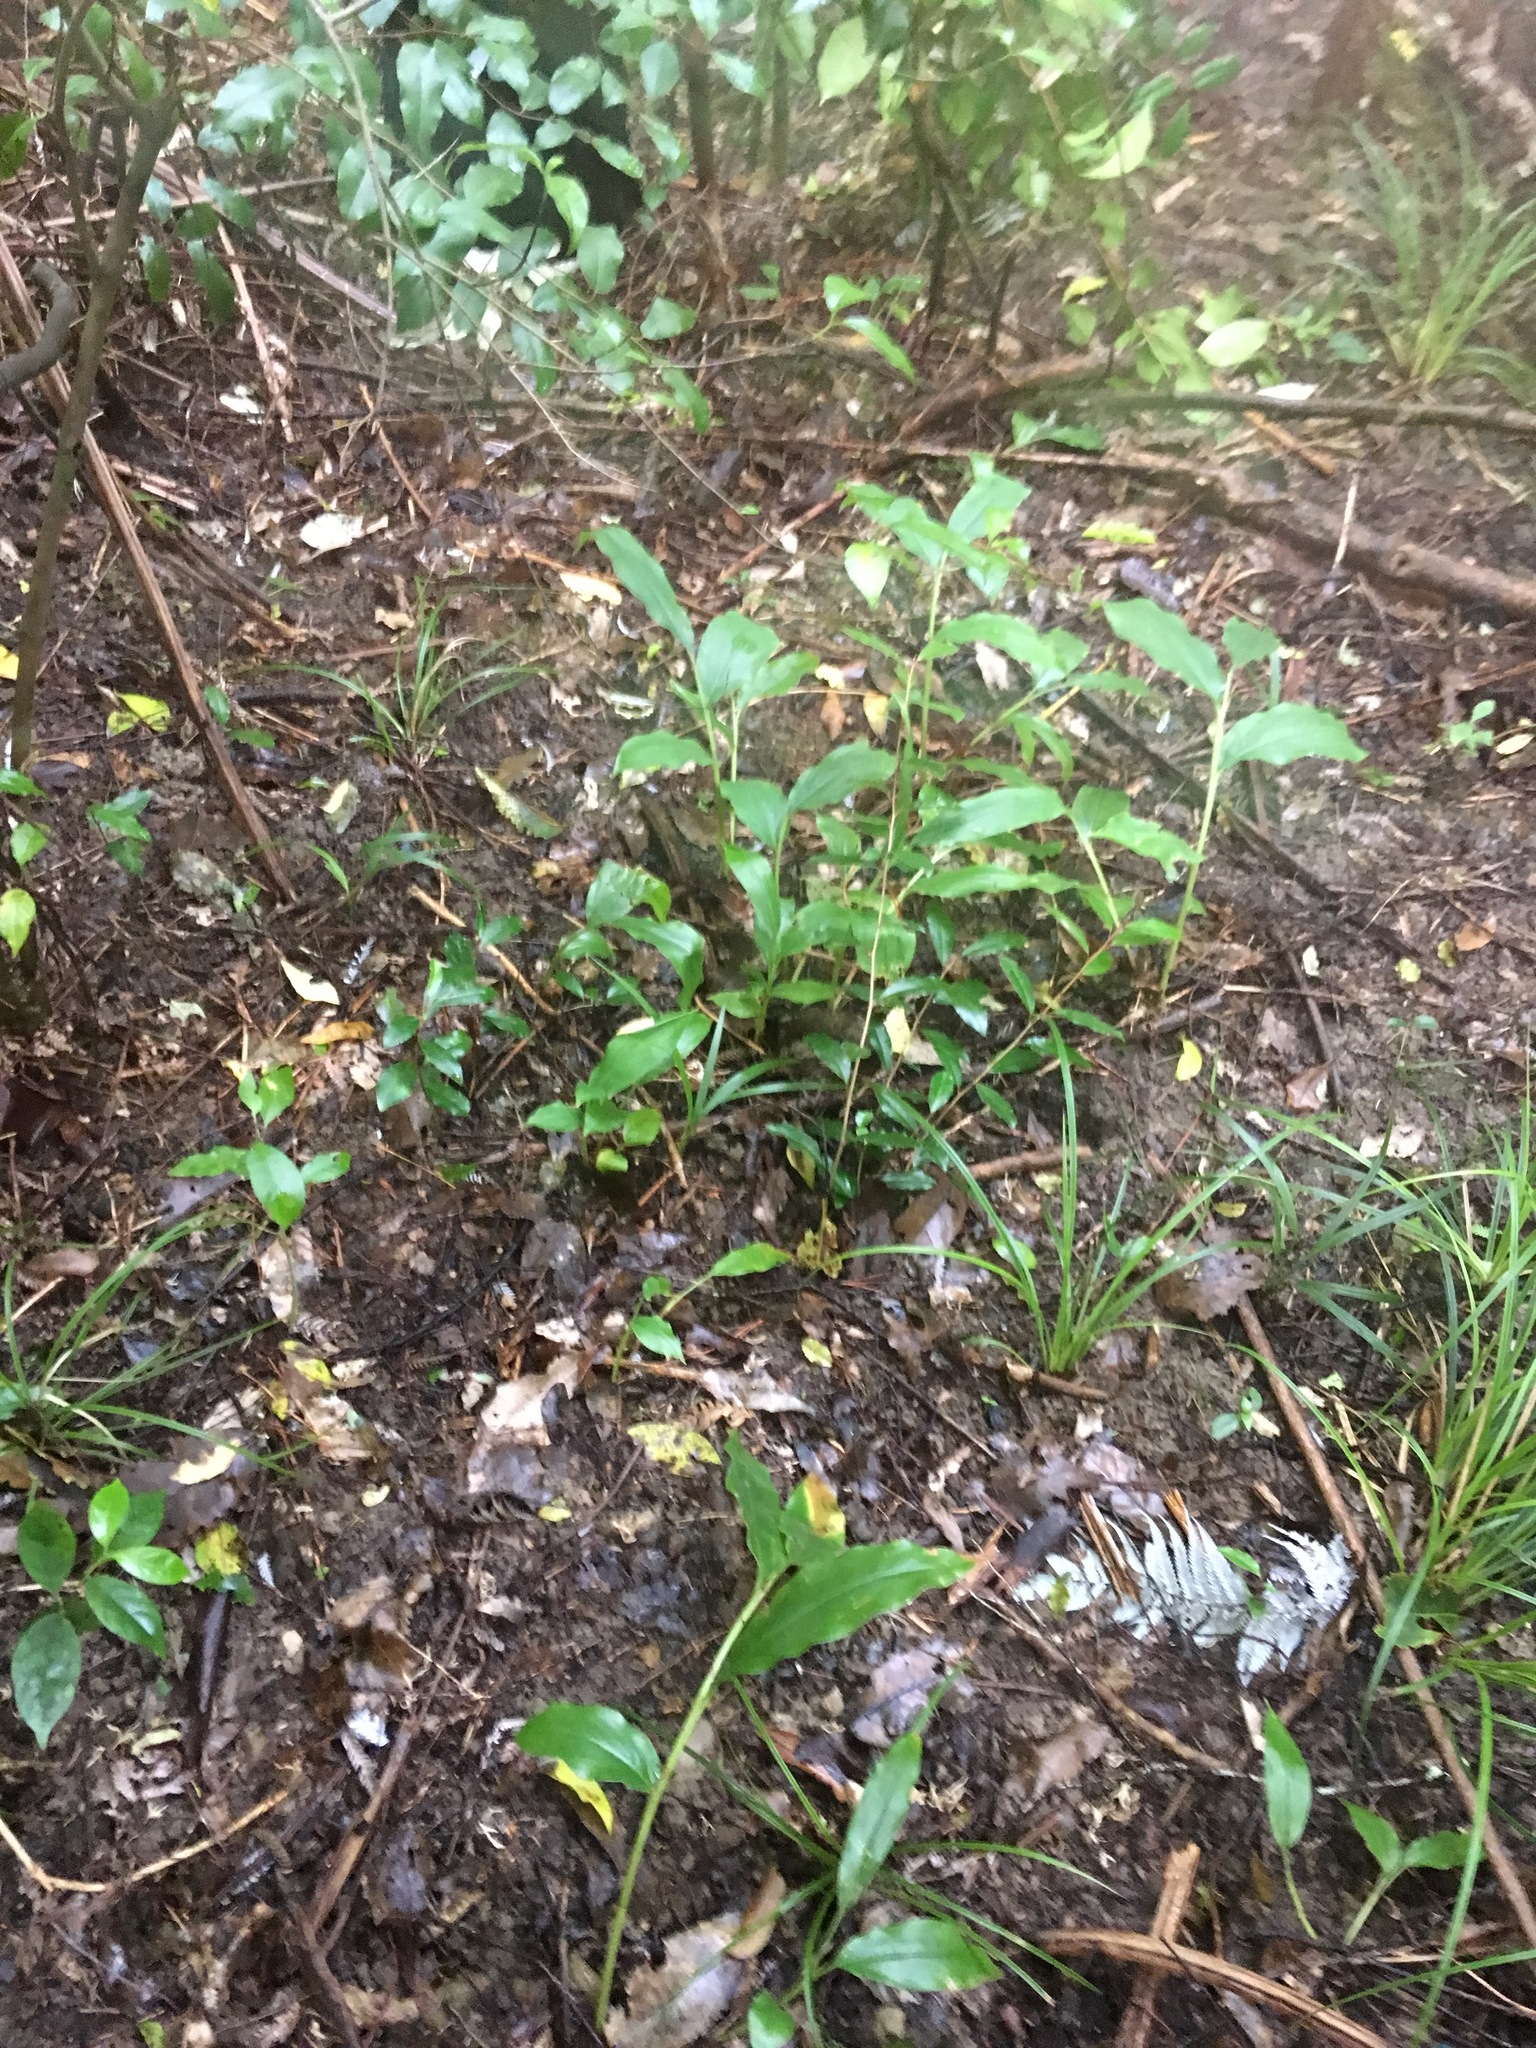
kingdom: Plantae
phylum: Tracheophyta
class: Liliopsida
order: Zingiberales
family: Zingiberaceae
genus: Hedychium
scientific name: Hedychium gardnerianum
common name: Himalayan ginger
